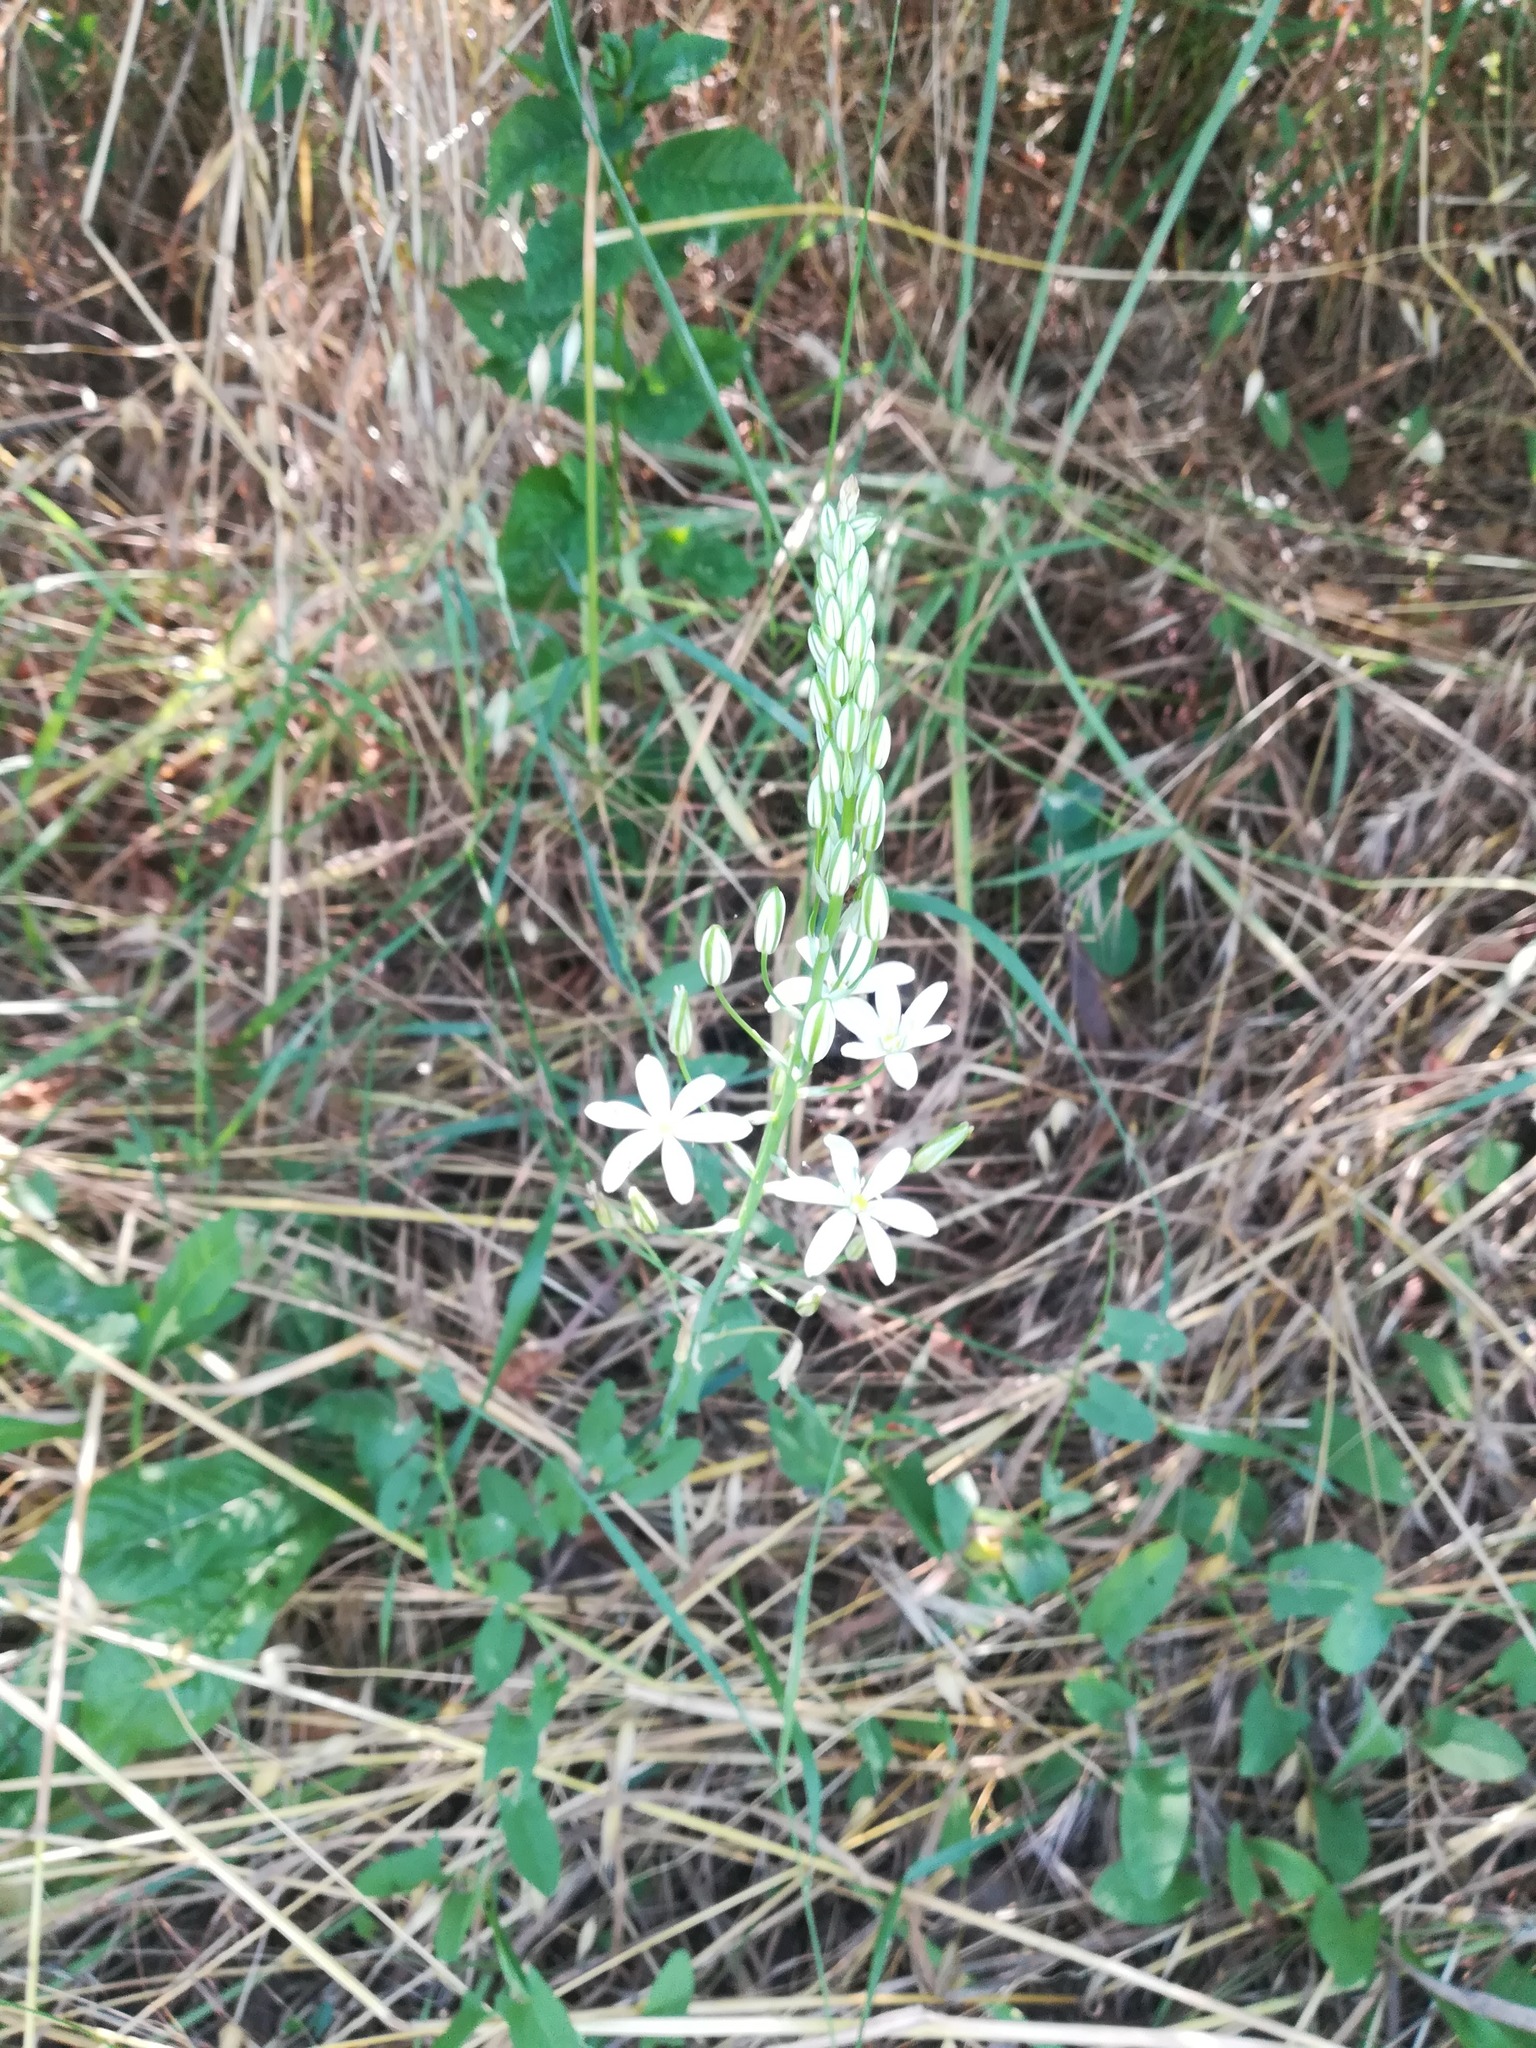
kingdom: Plantae
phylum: Tracheophyta
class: Liliopsida
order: Asparagales
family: Asparagaceae
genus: Ornithogalum
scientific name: Ornithogalum pyramidale
